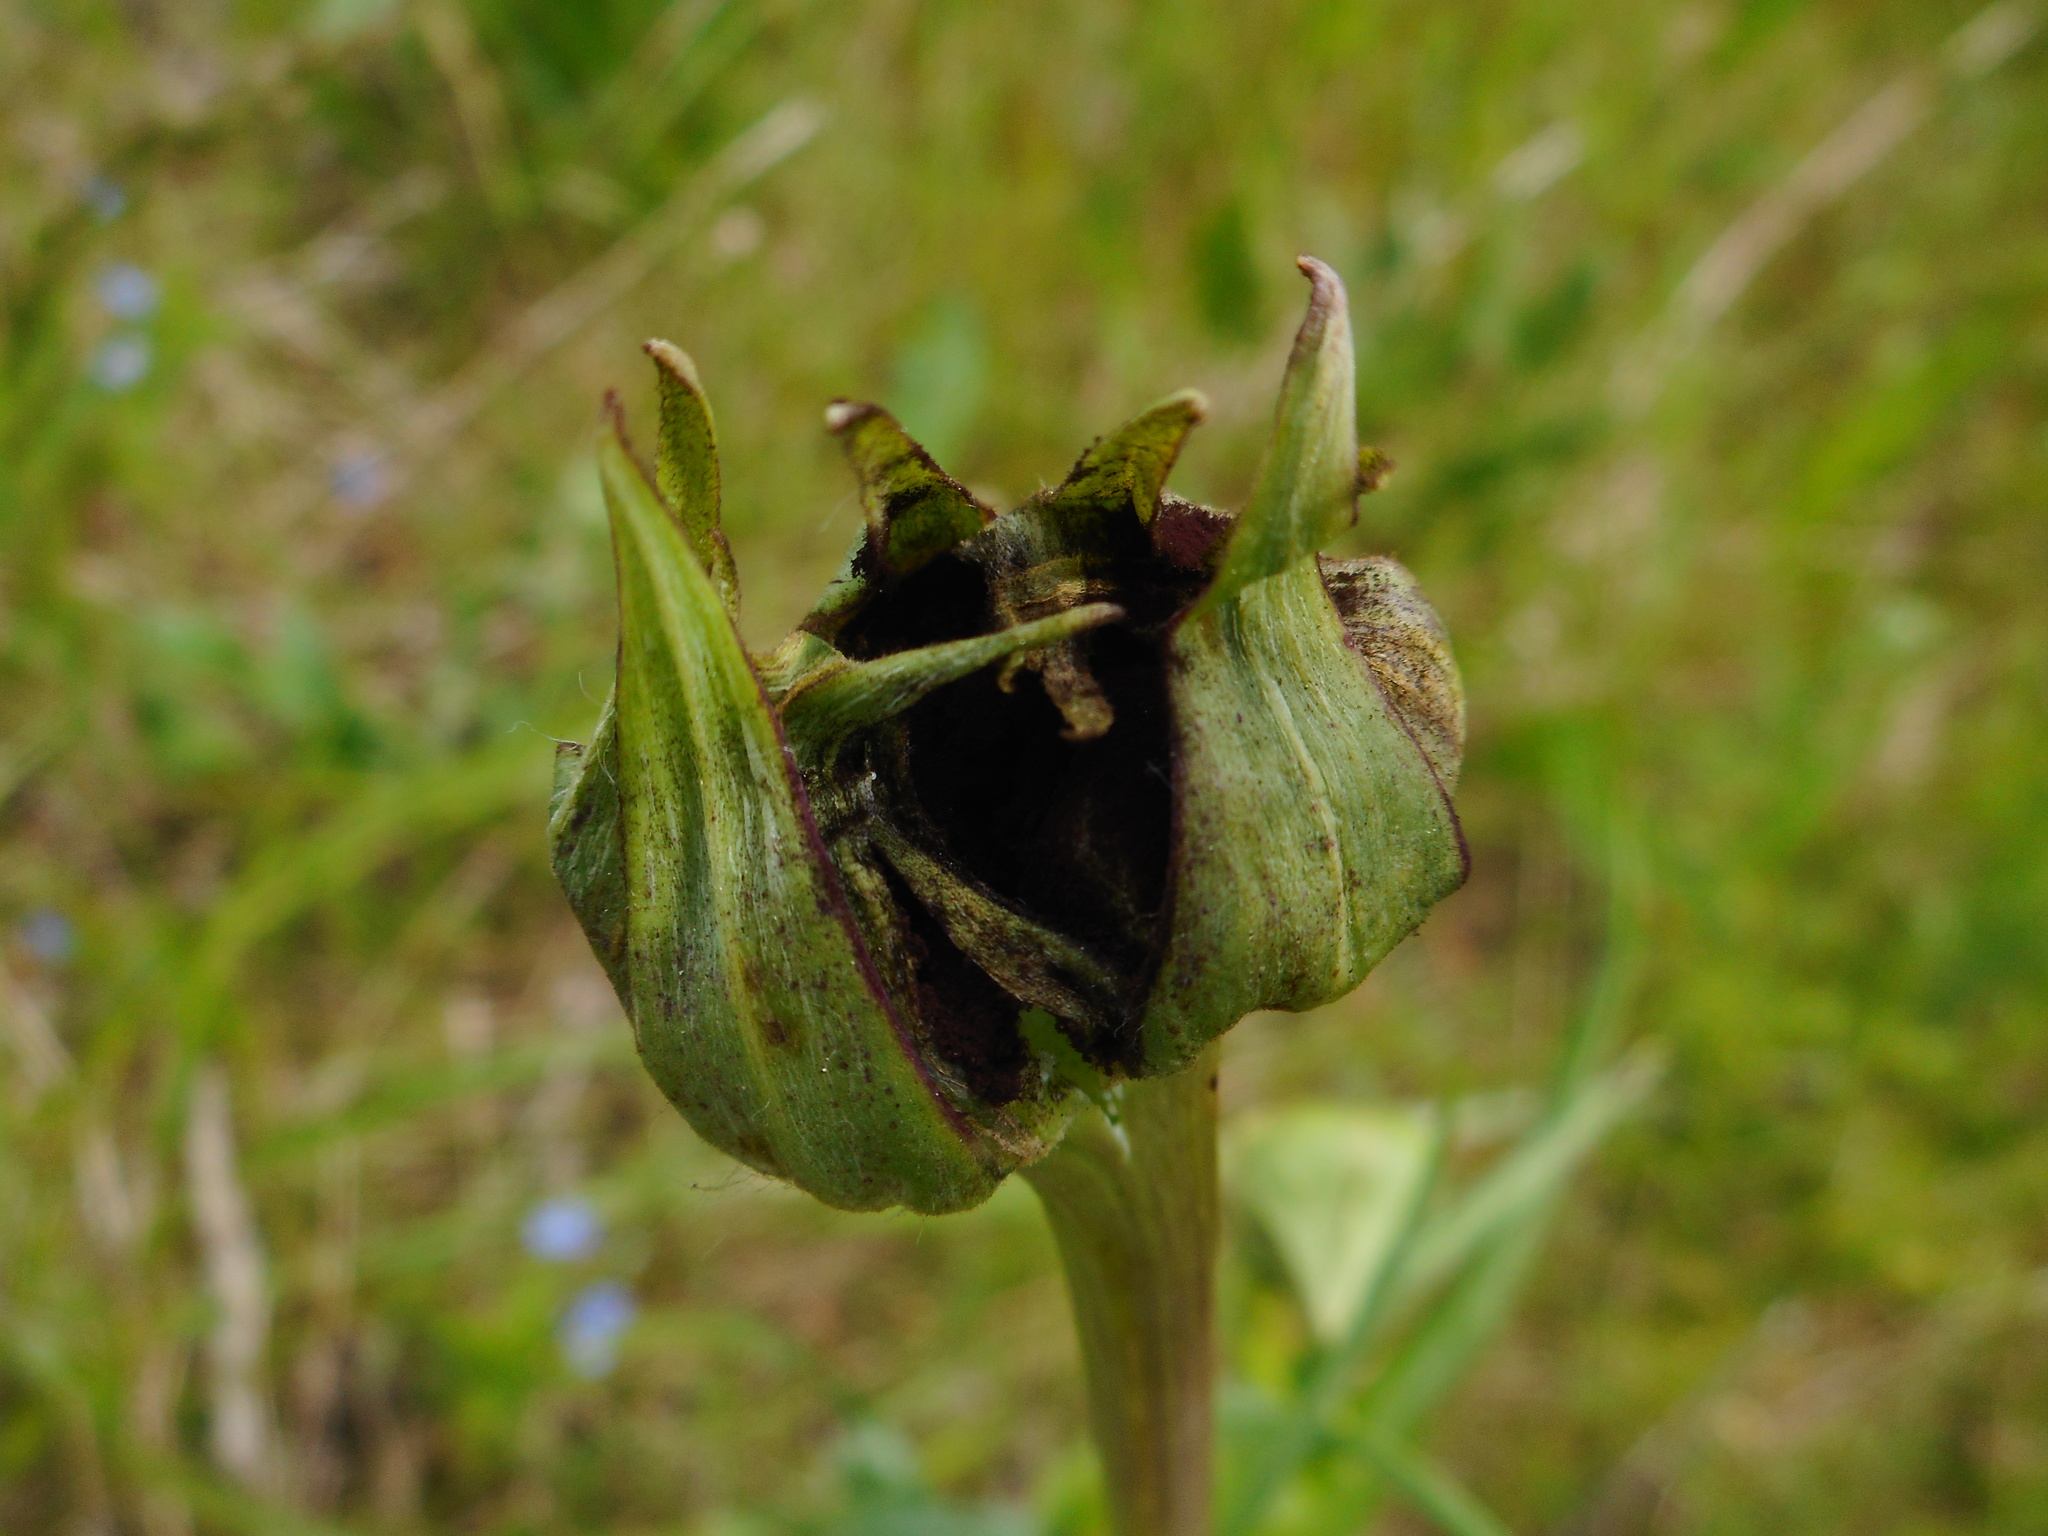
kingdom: Fungi
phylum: Basidiomycota
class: Microbotryomycetes
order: Microbotryales
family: Microbotryaceae
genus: Microbotryum
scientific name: Microbotryum tragopogonis-pratensis
